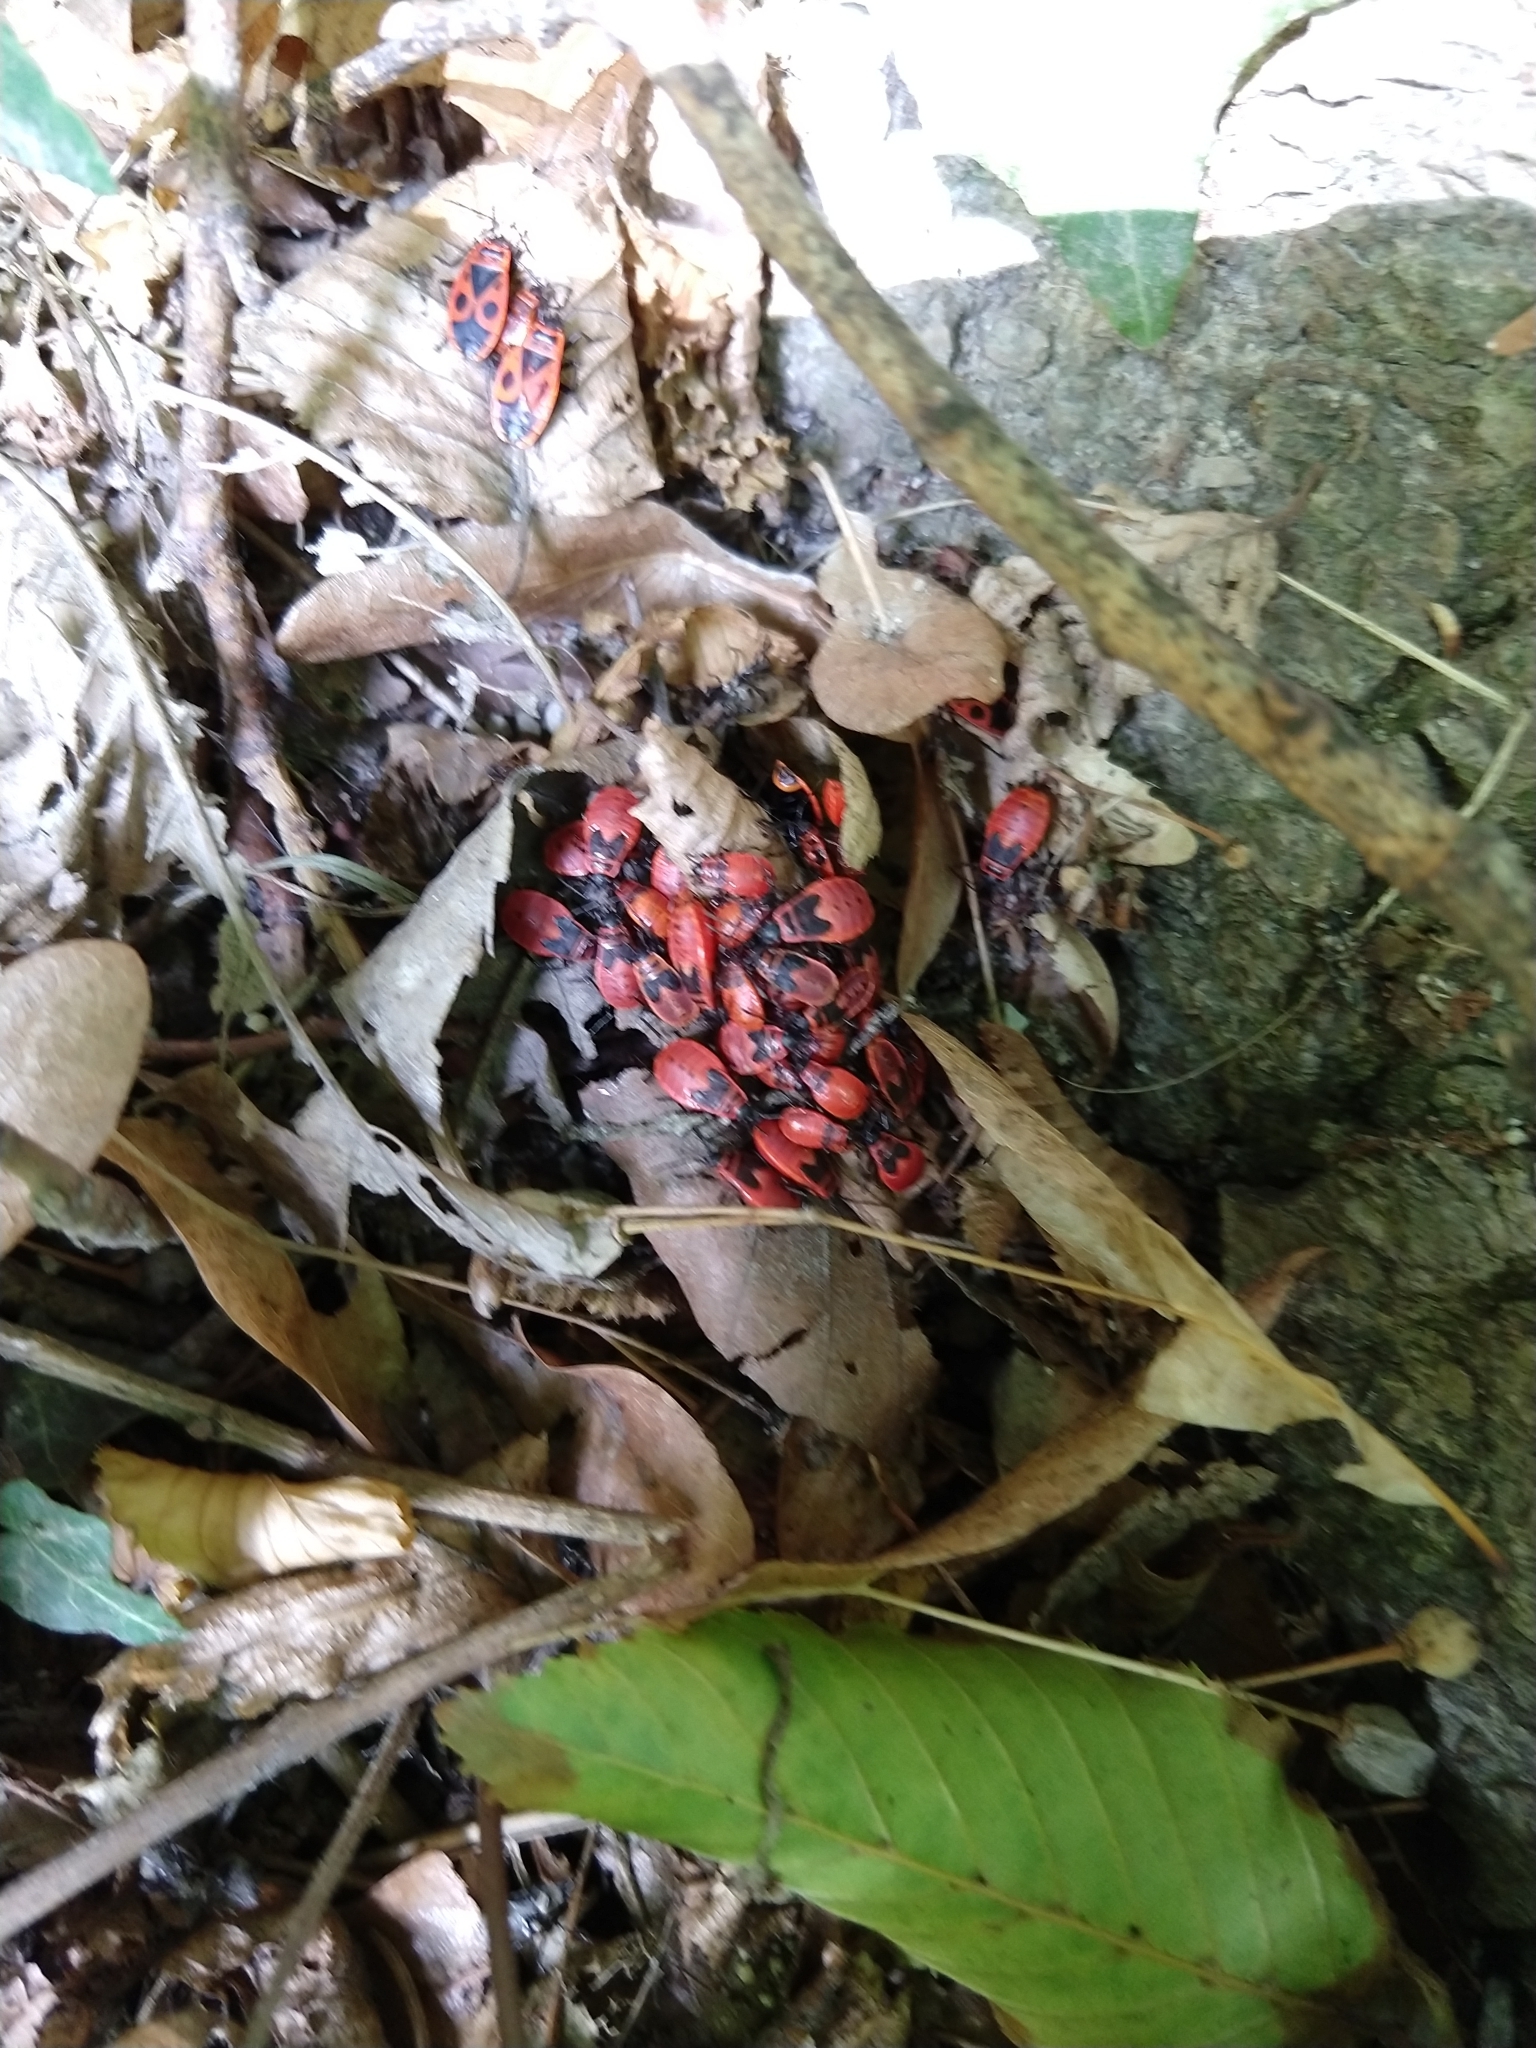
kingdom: Animalia
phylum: Arthropoda
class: Insecta
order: Hemiptera
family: Pyrrhocoridae
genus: Pyrrhocoris
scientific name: Pyrrhocoris apterus
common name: Firebug
